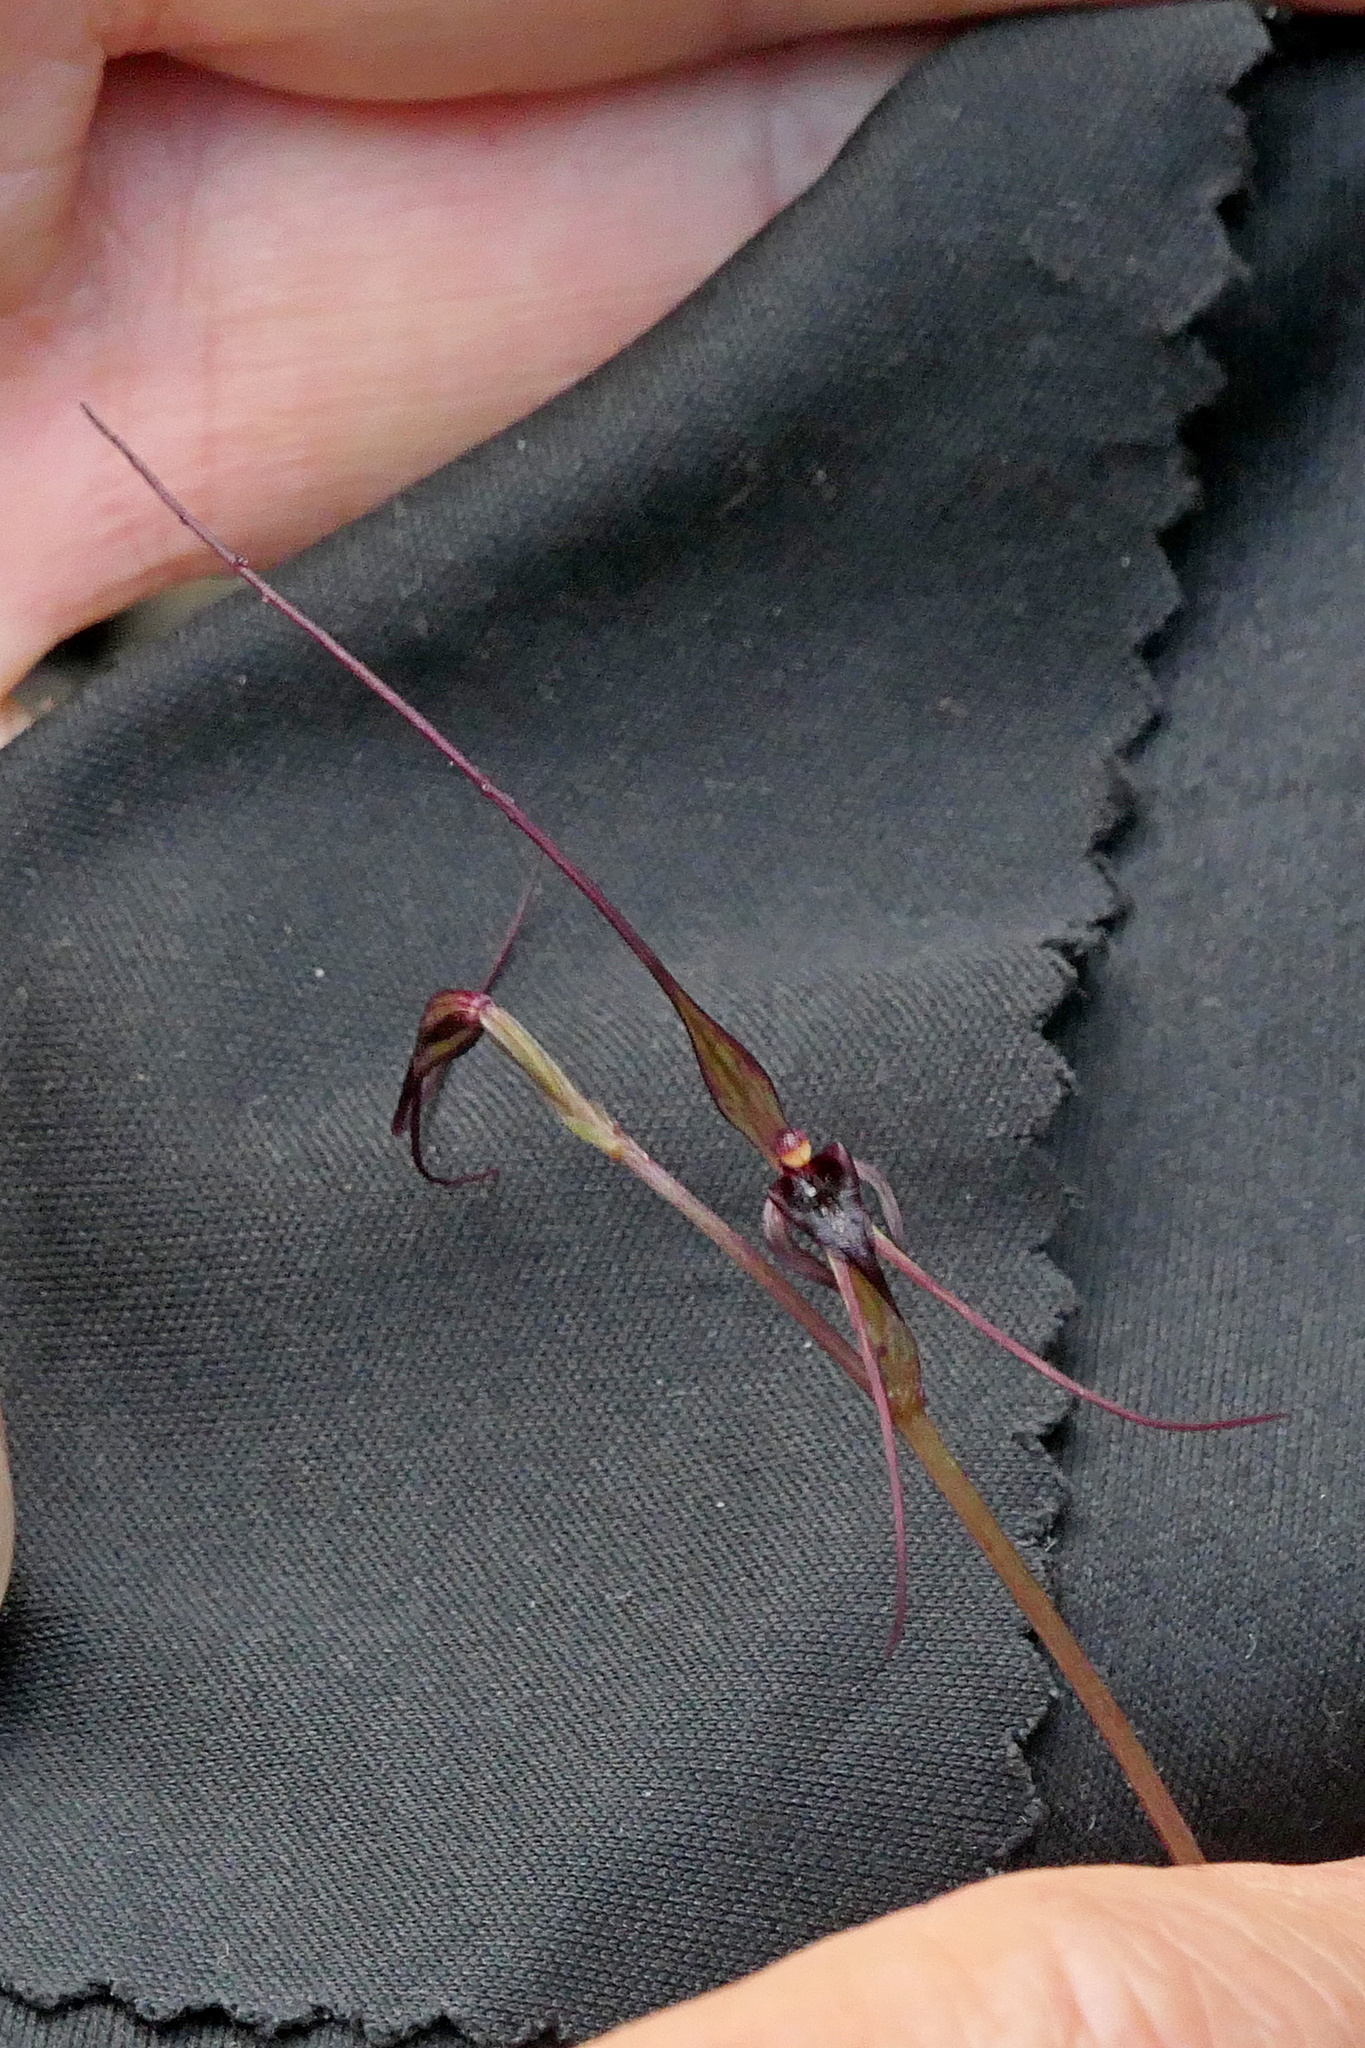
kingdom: Plantae
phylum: Tracheophyta
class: Liliopsida
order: Asparagales
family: Orchidaceae
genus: Acianthus
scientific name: Acianthus caudatus
